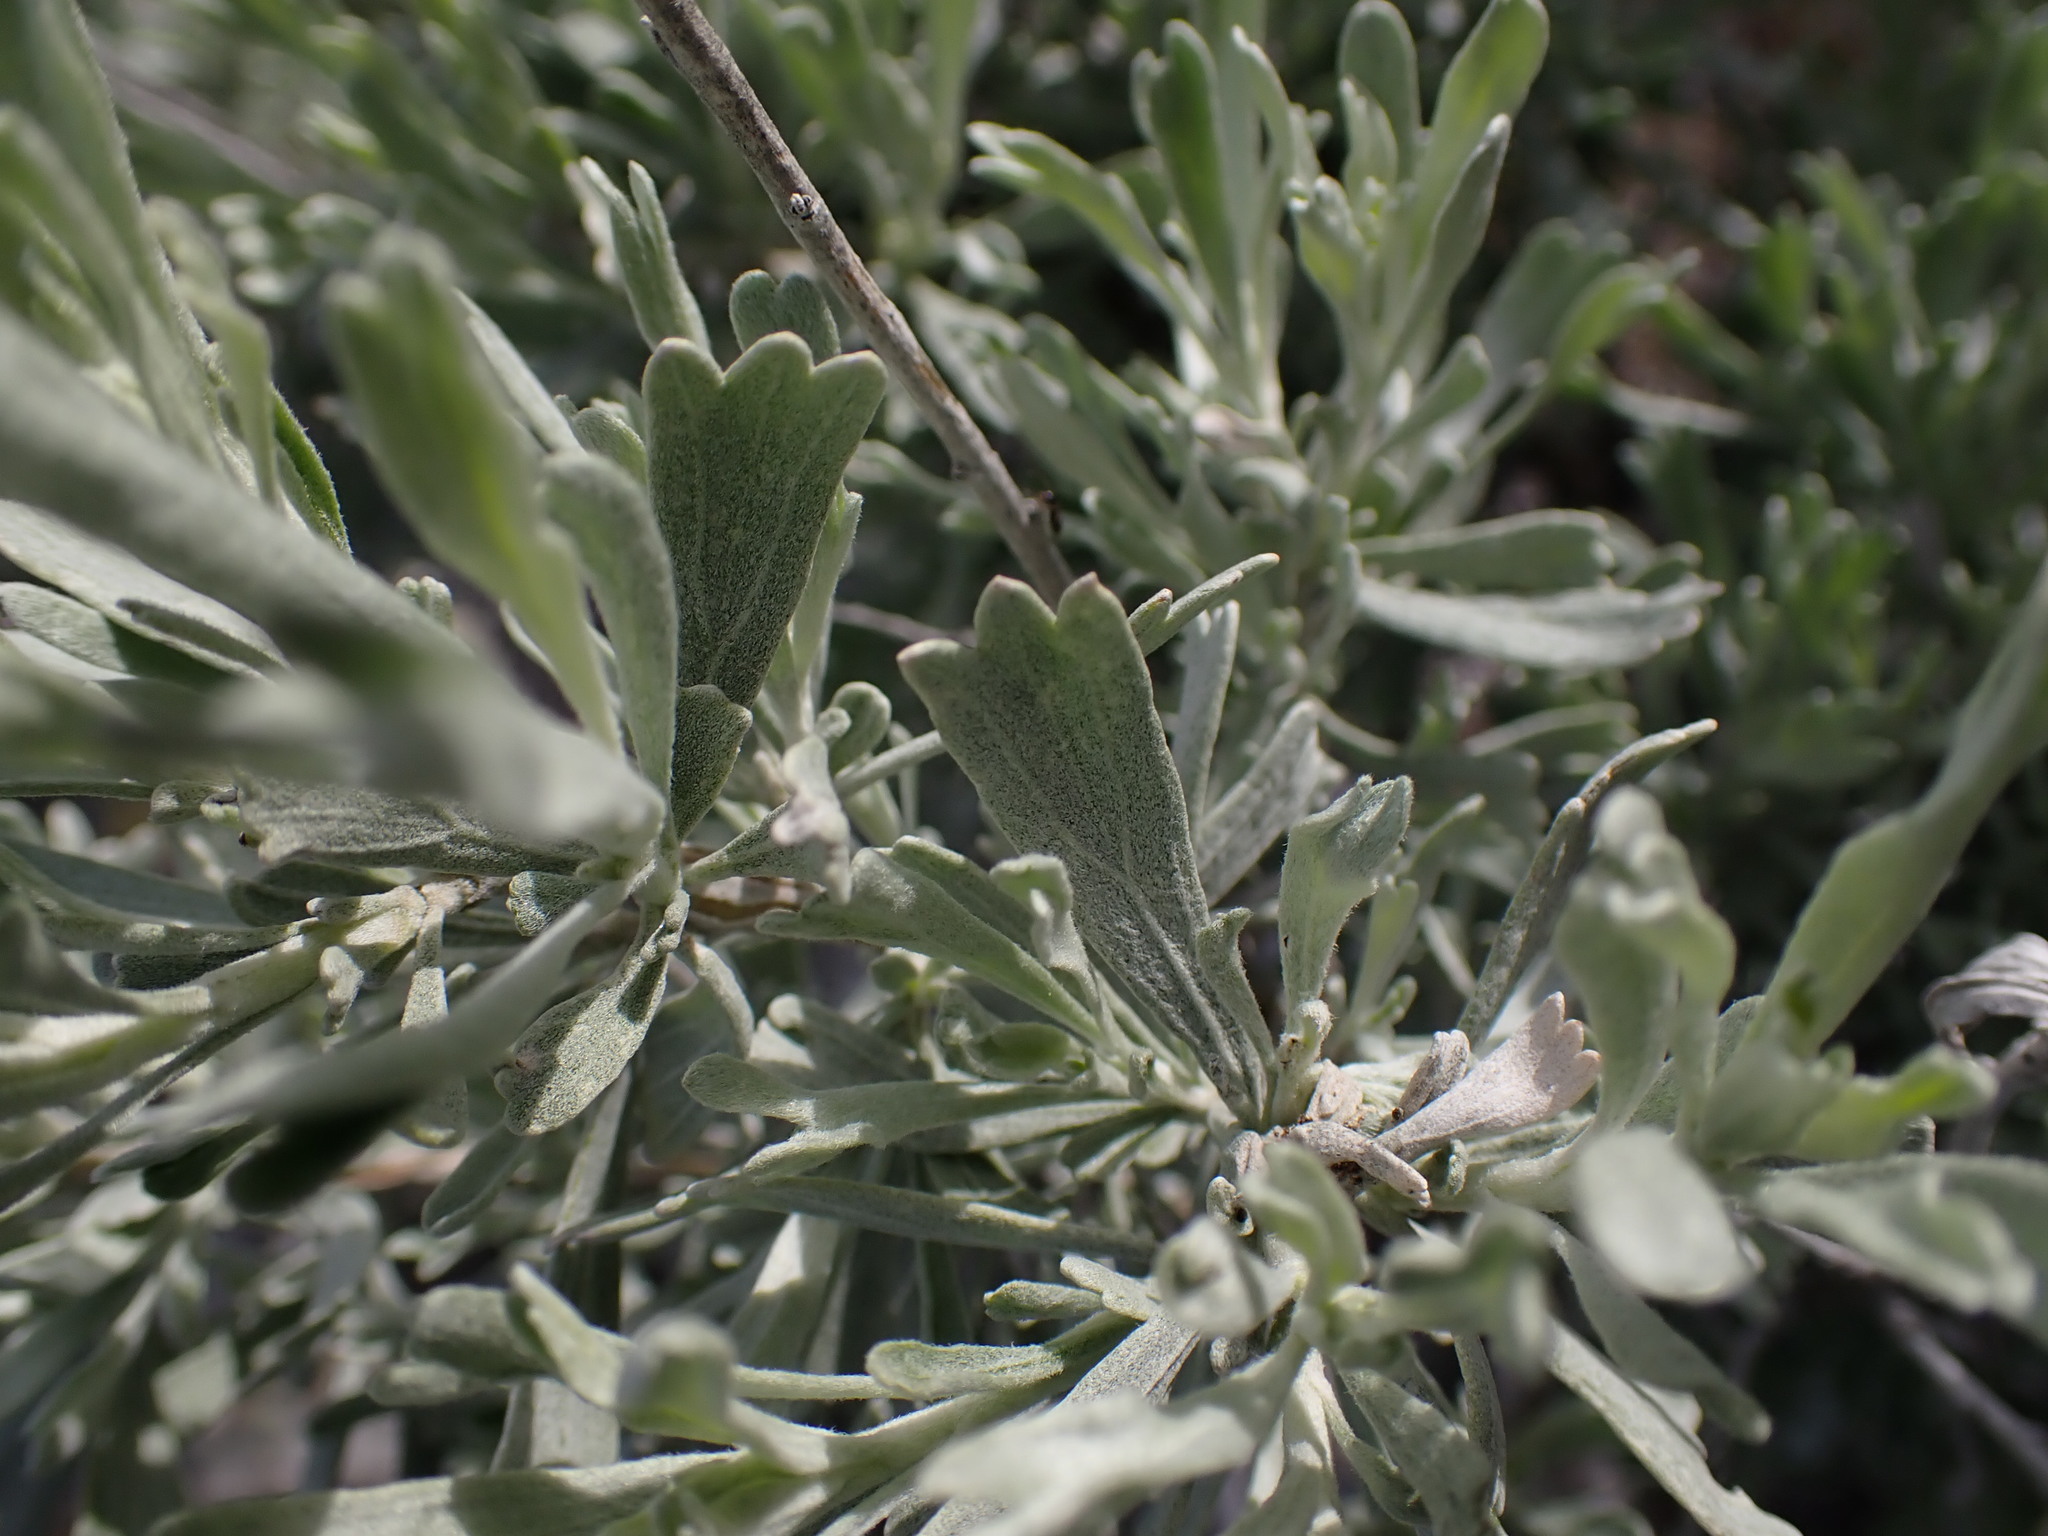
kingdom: Plantae
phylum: Tracheophyta
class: Magnoliopsida
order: Asterales
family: Asteraceae
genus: Artemisia
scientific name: Artemisia tridentata
